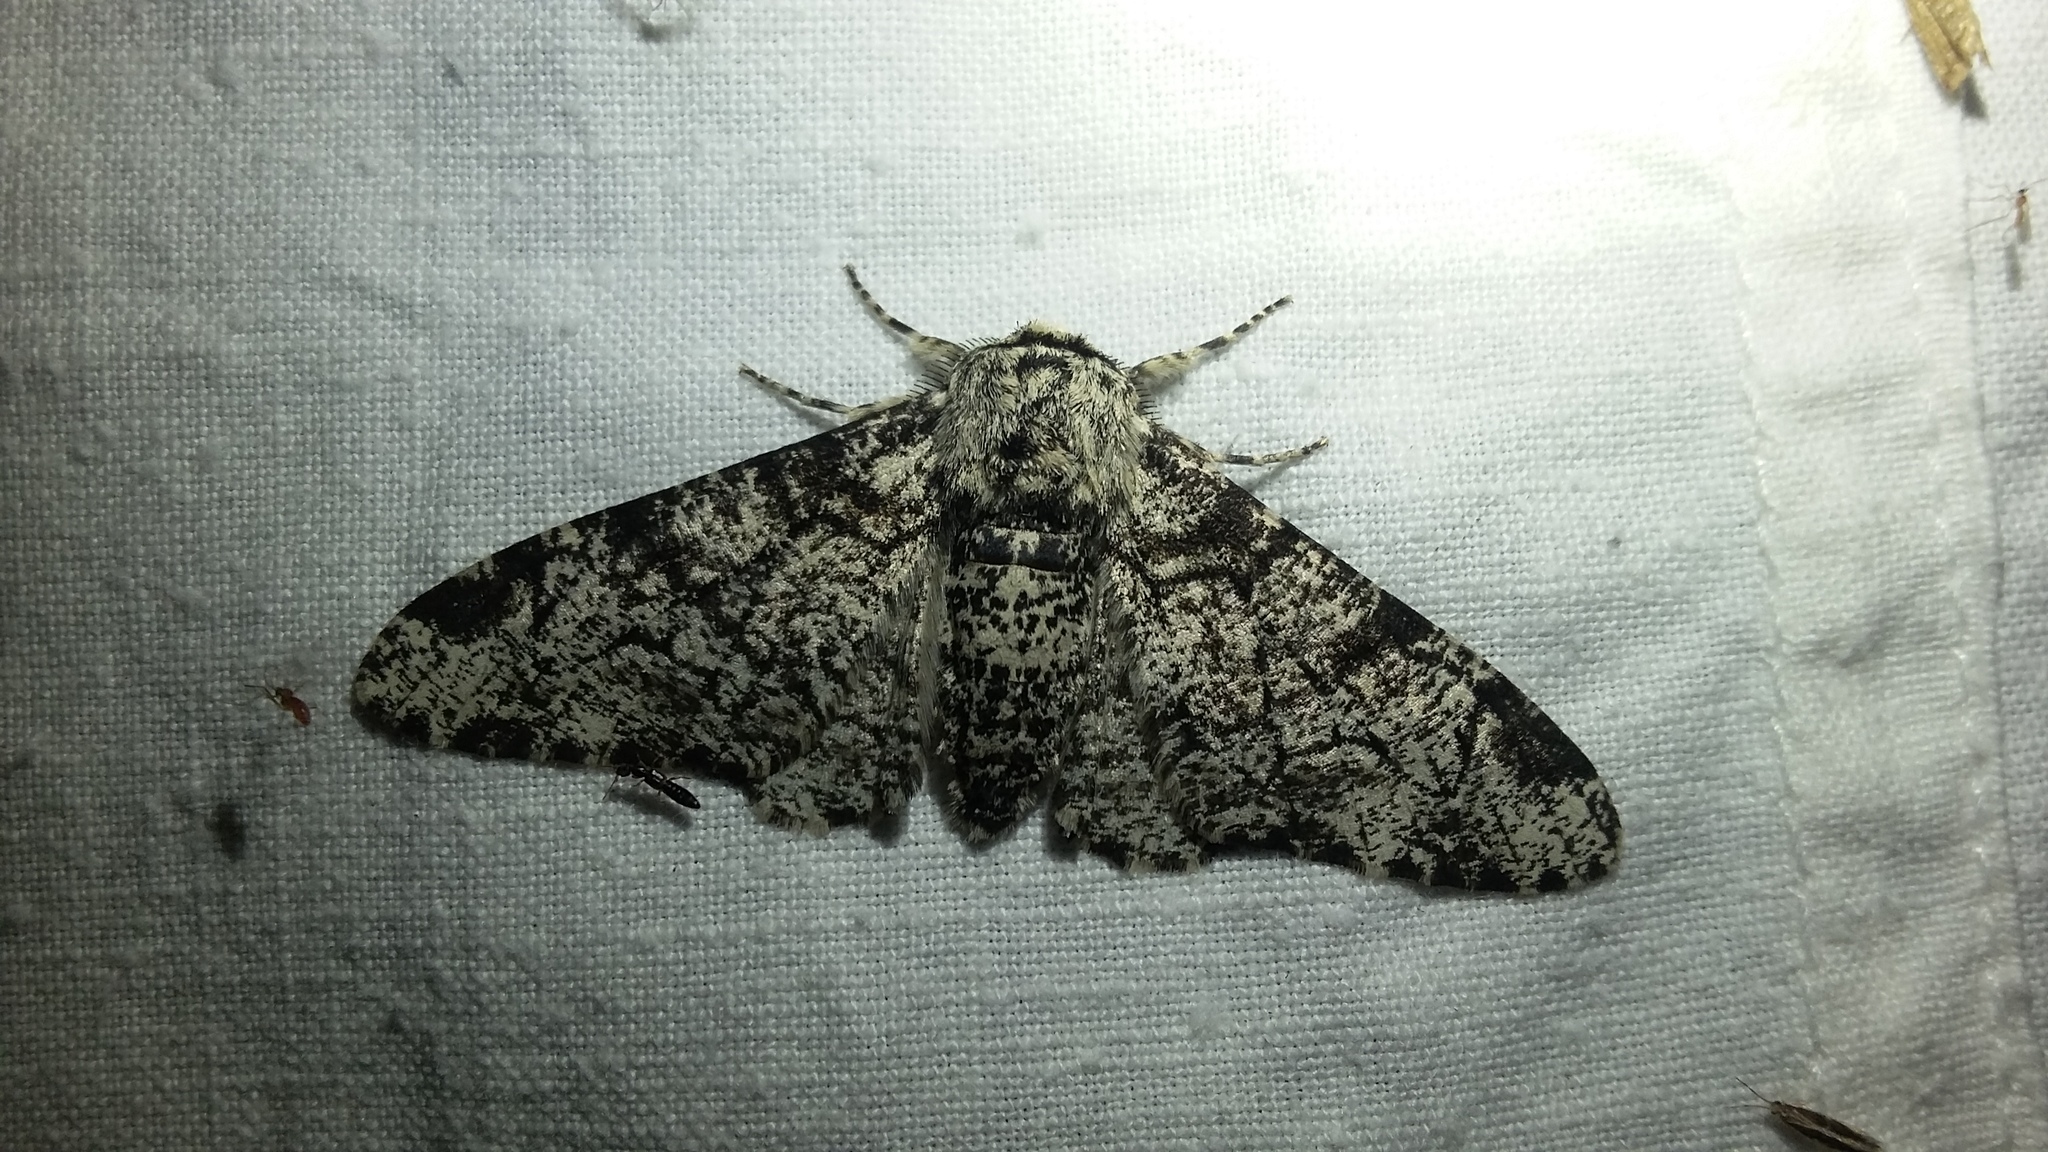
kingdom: Animalia
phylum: Arthropoda
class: Insecta
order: Lepidoptera
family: Geometridae
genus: Biston
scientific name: Biston betularia
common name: Peppered moth
